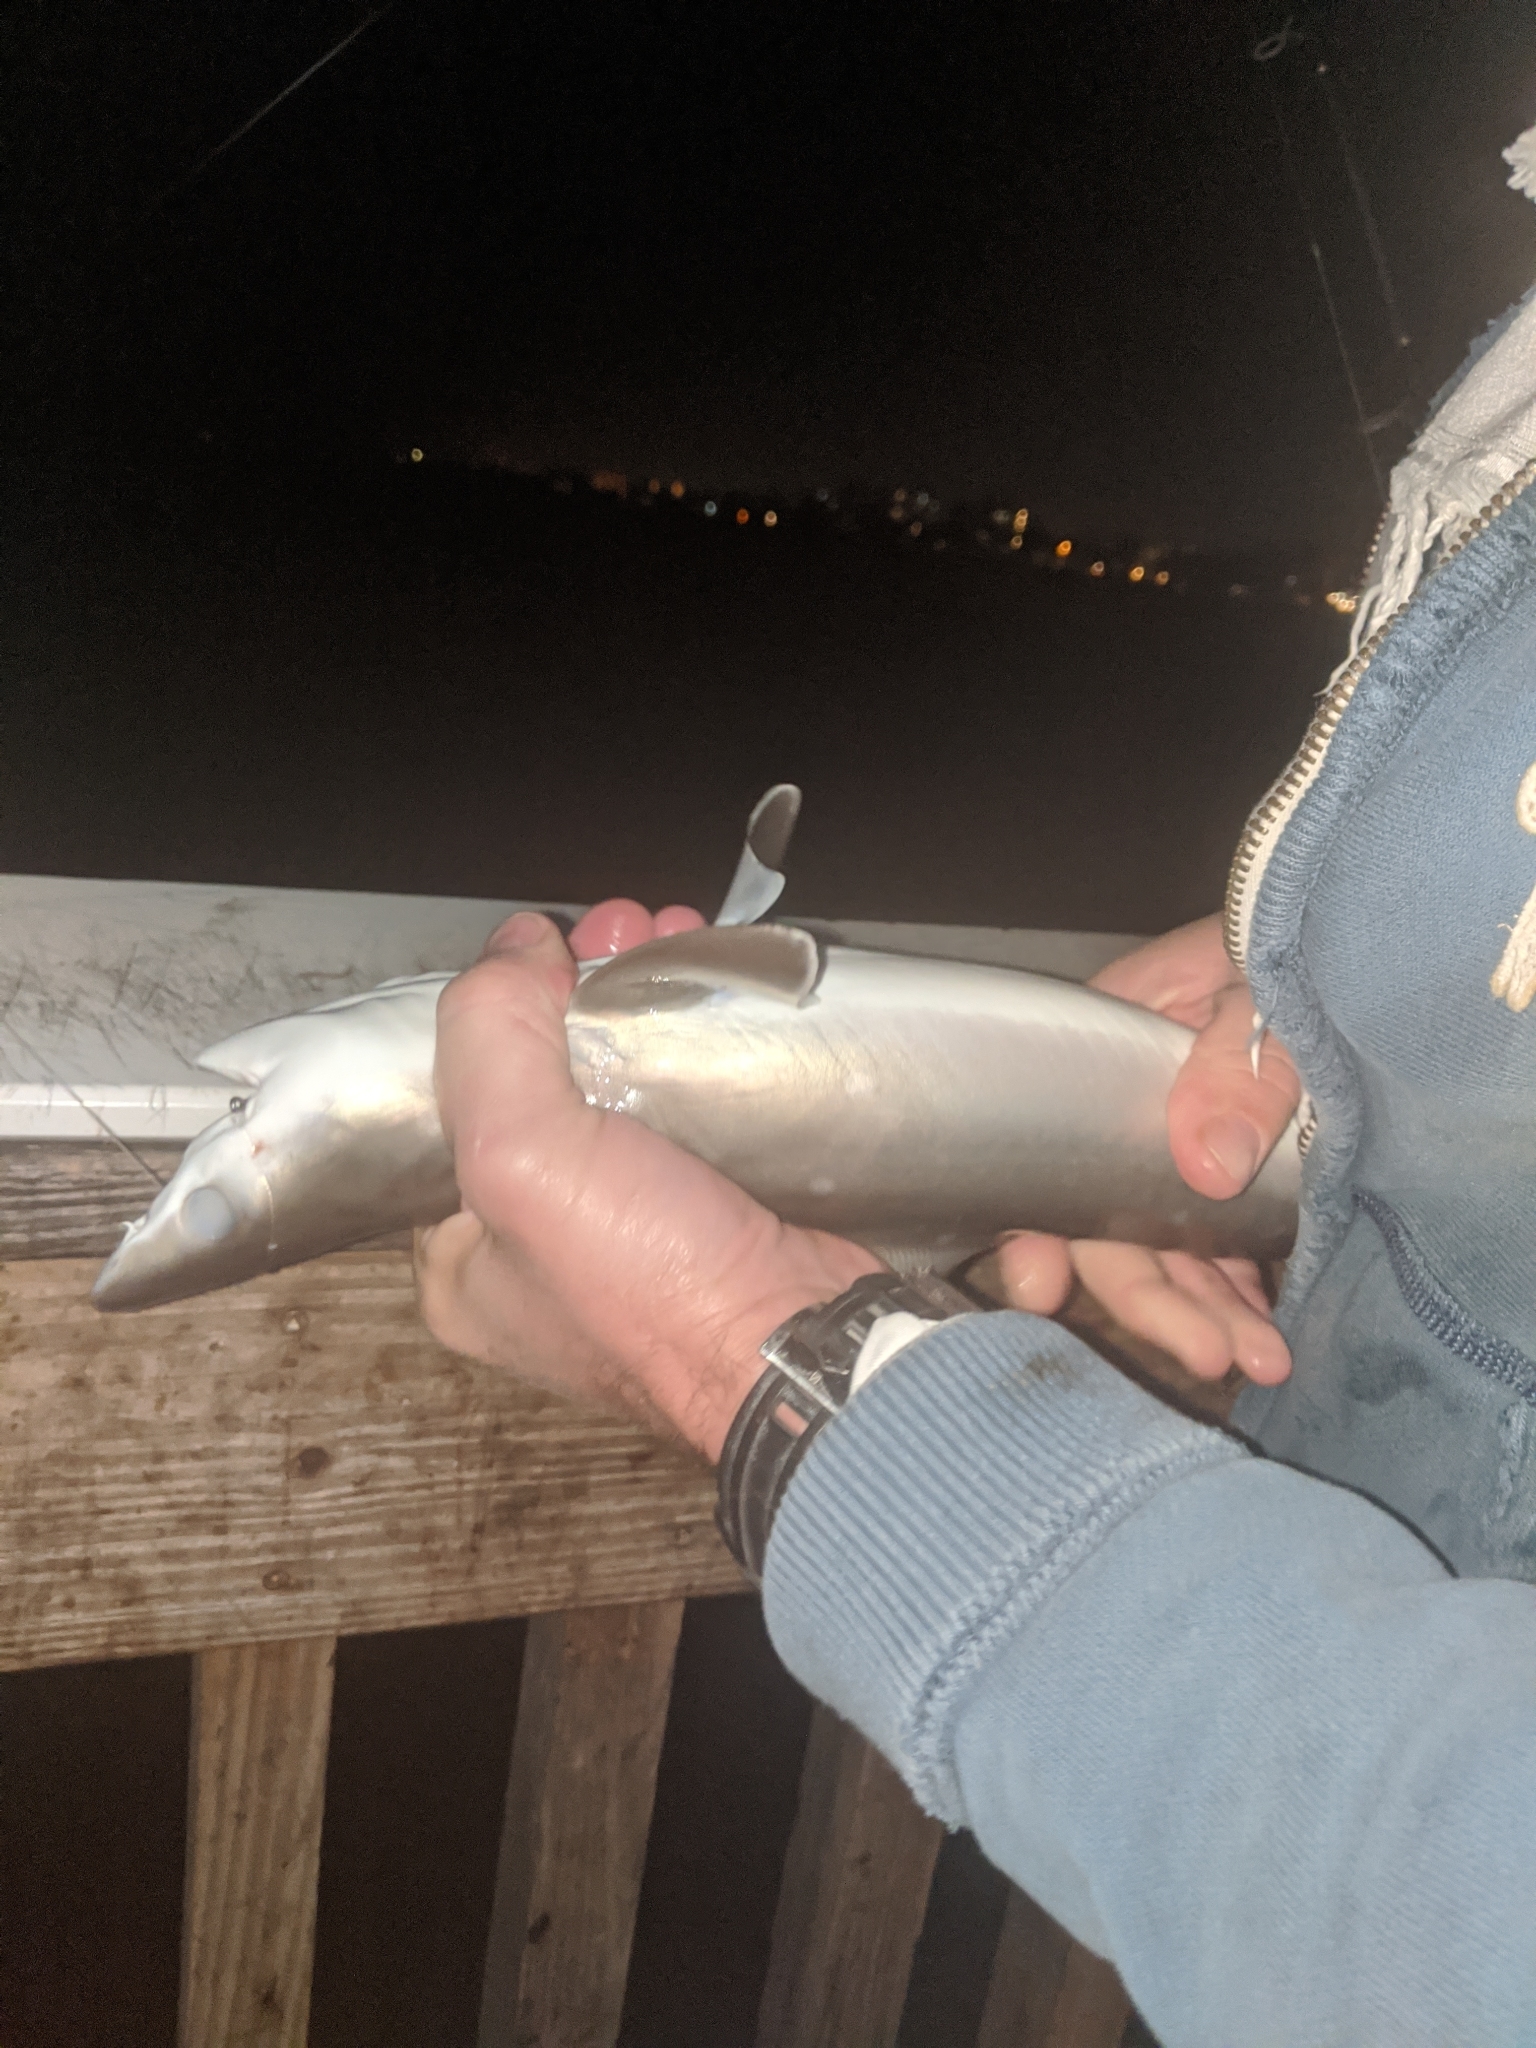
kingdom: Animalia
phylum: Chordata
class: Elasmobranchii
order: Carcharhiniformes
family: Carcharhinidae
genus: Rhizoprionodon
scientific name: Rhizoprionodon terraenovae
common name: Atlantic sharpnose shark
